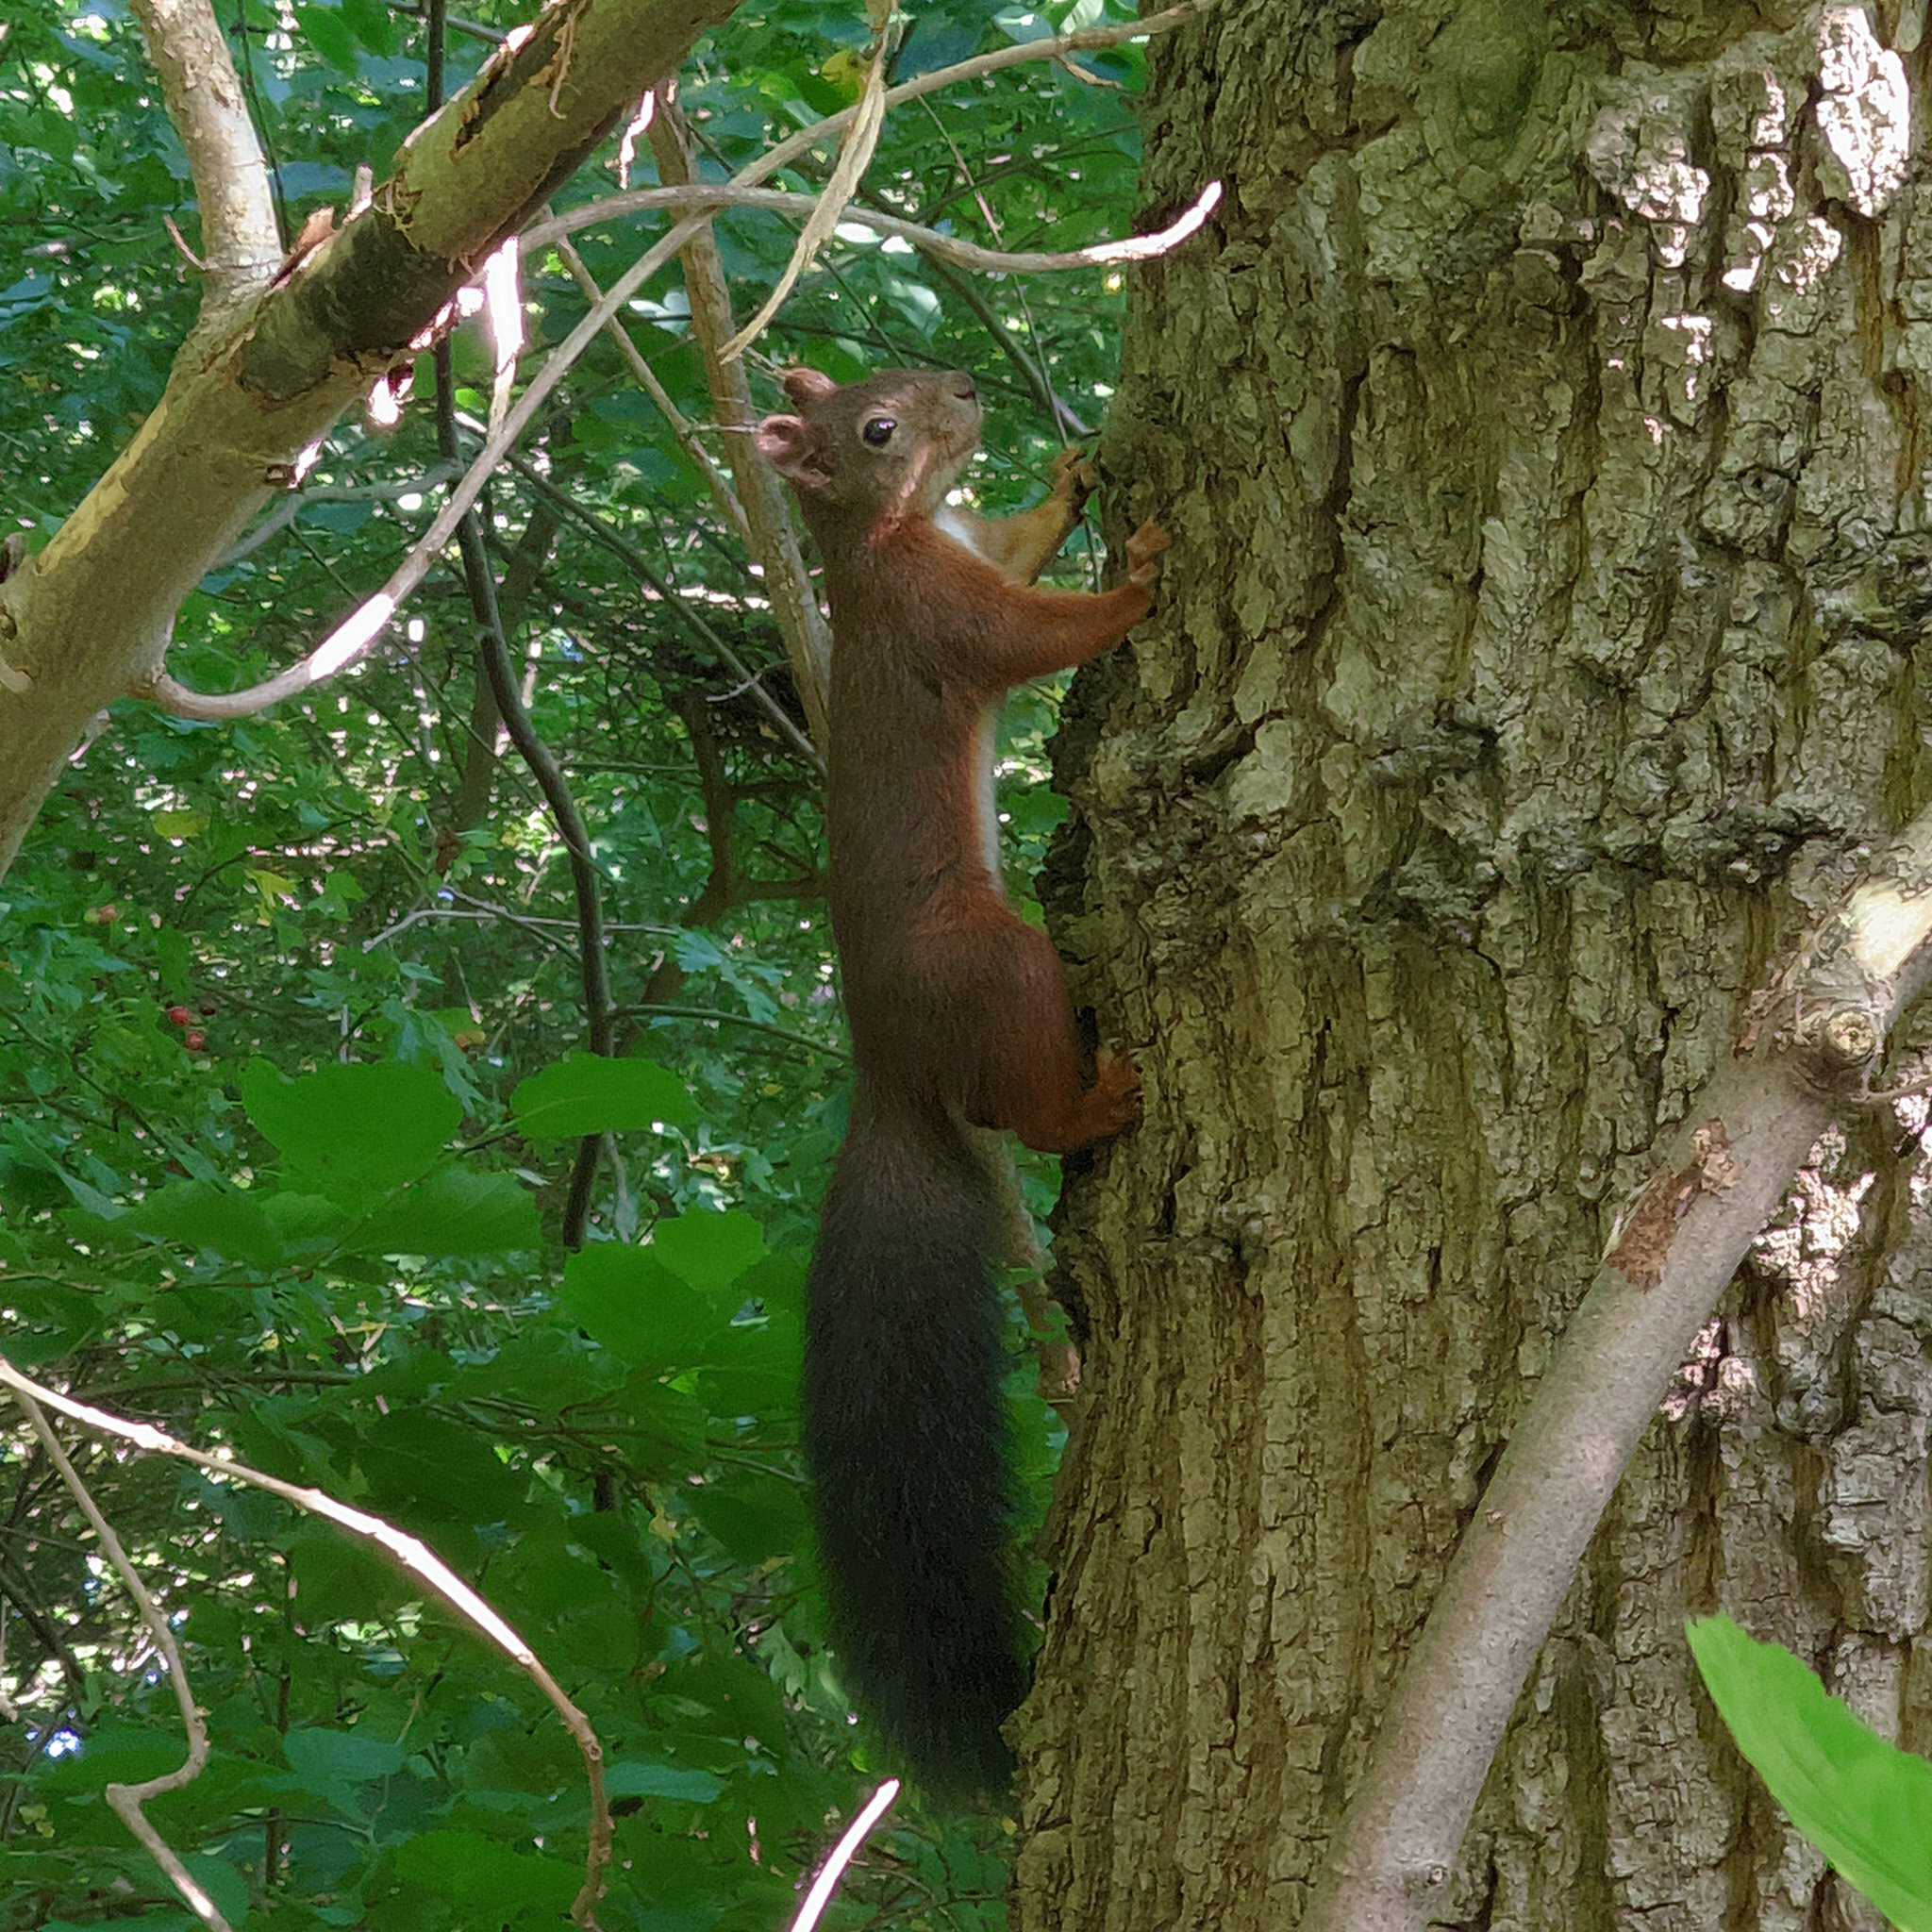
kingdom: Animalia
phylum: Chordata
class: Mammalia
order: Rodentia
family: Sciuridae
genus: Sciurus
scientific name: Sciurus vulgaris
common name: Eurasian red squirrel
